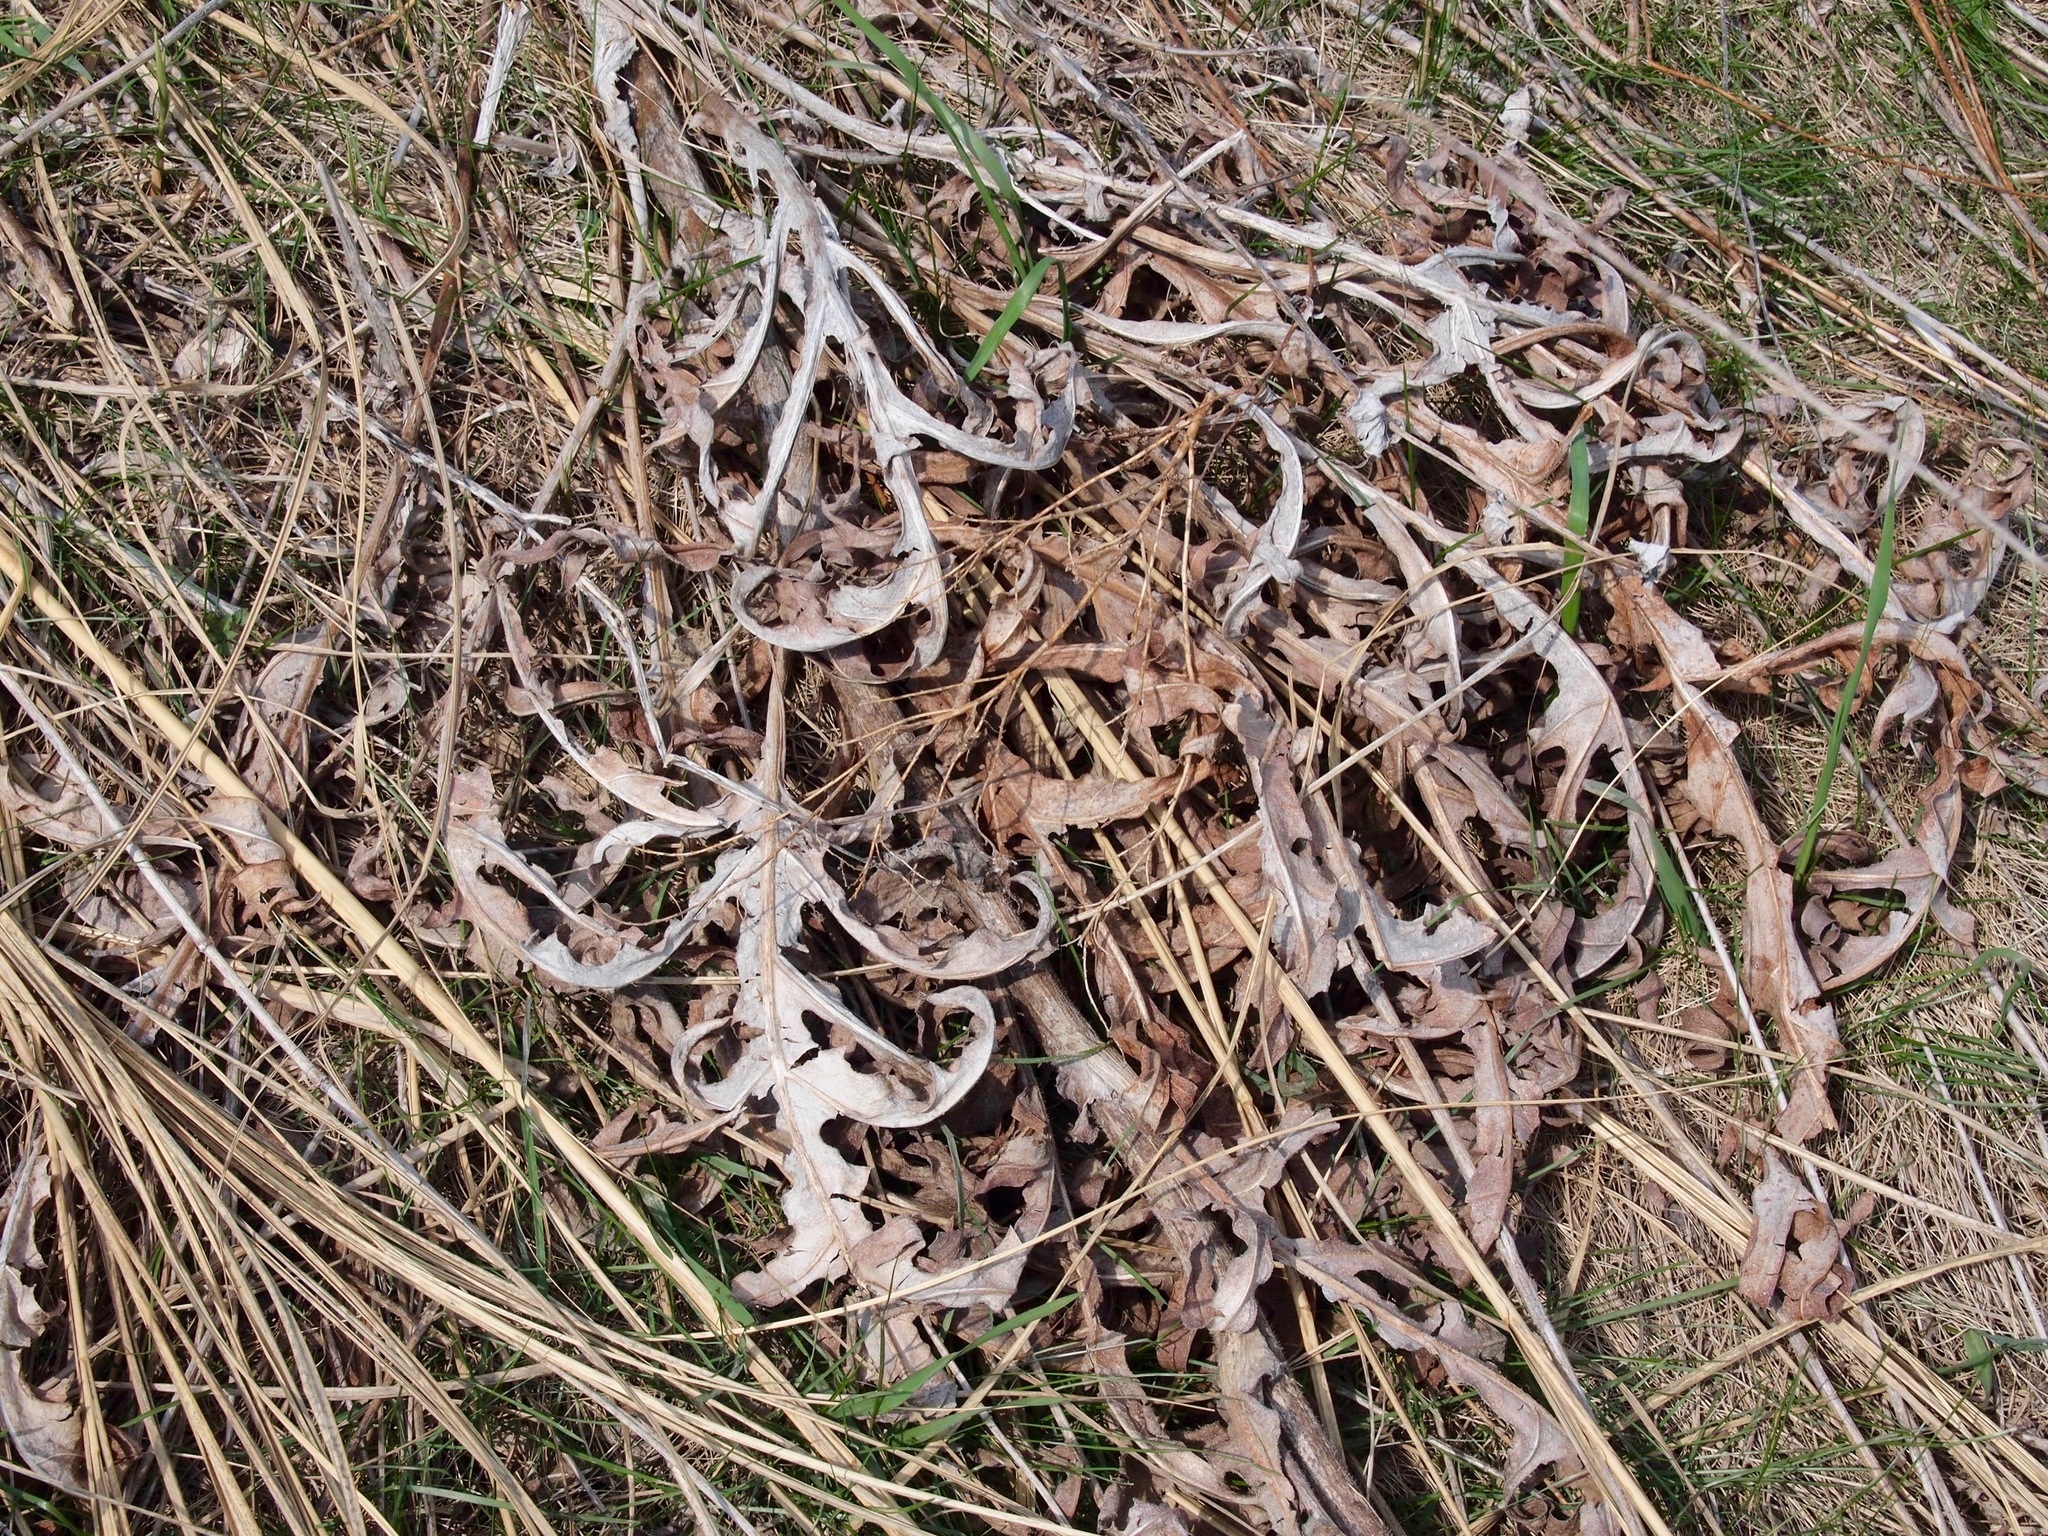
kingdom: Plantae
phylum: Tracheophyta
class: Magnoliopsida
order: Asterales
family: Asteraceae
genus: Silphium
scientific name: Silphium laciniatum
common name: Polarplant
